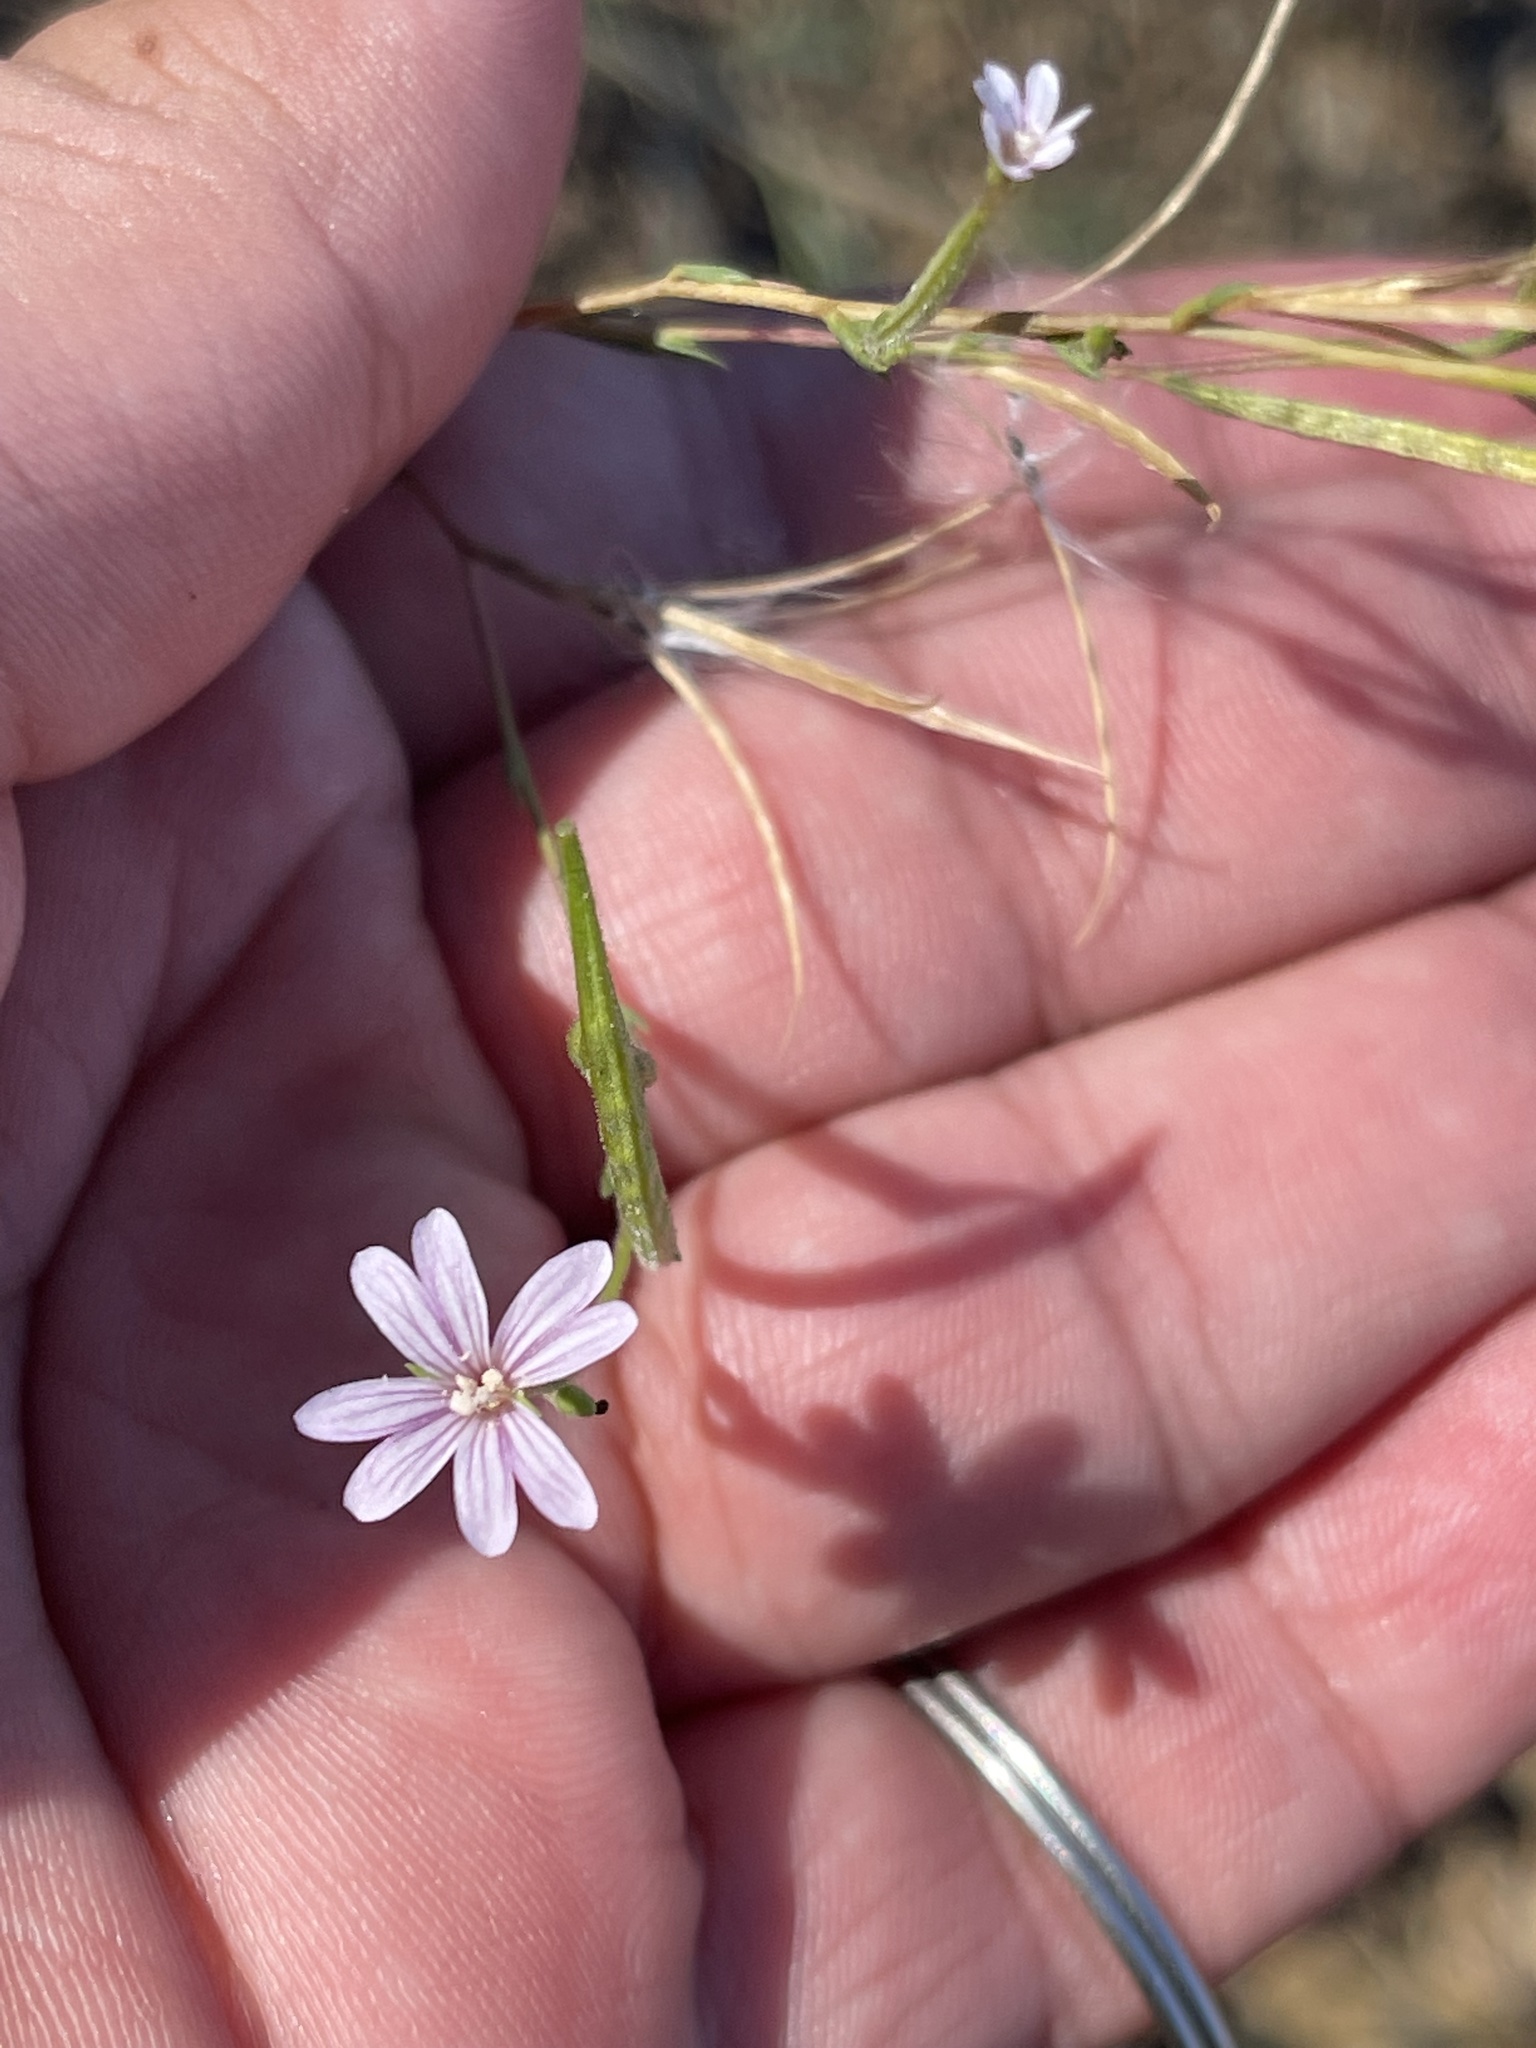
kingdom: Plantae
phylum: Tracheophyta
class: Magnoliopsida
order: Myrtales
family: Onagraceae
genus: Epilobium
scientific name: Epilobium brachycarpum
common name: Annual willowherb
